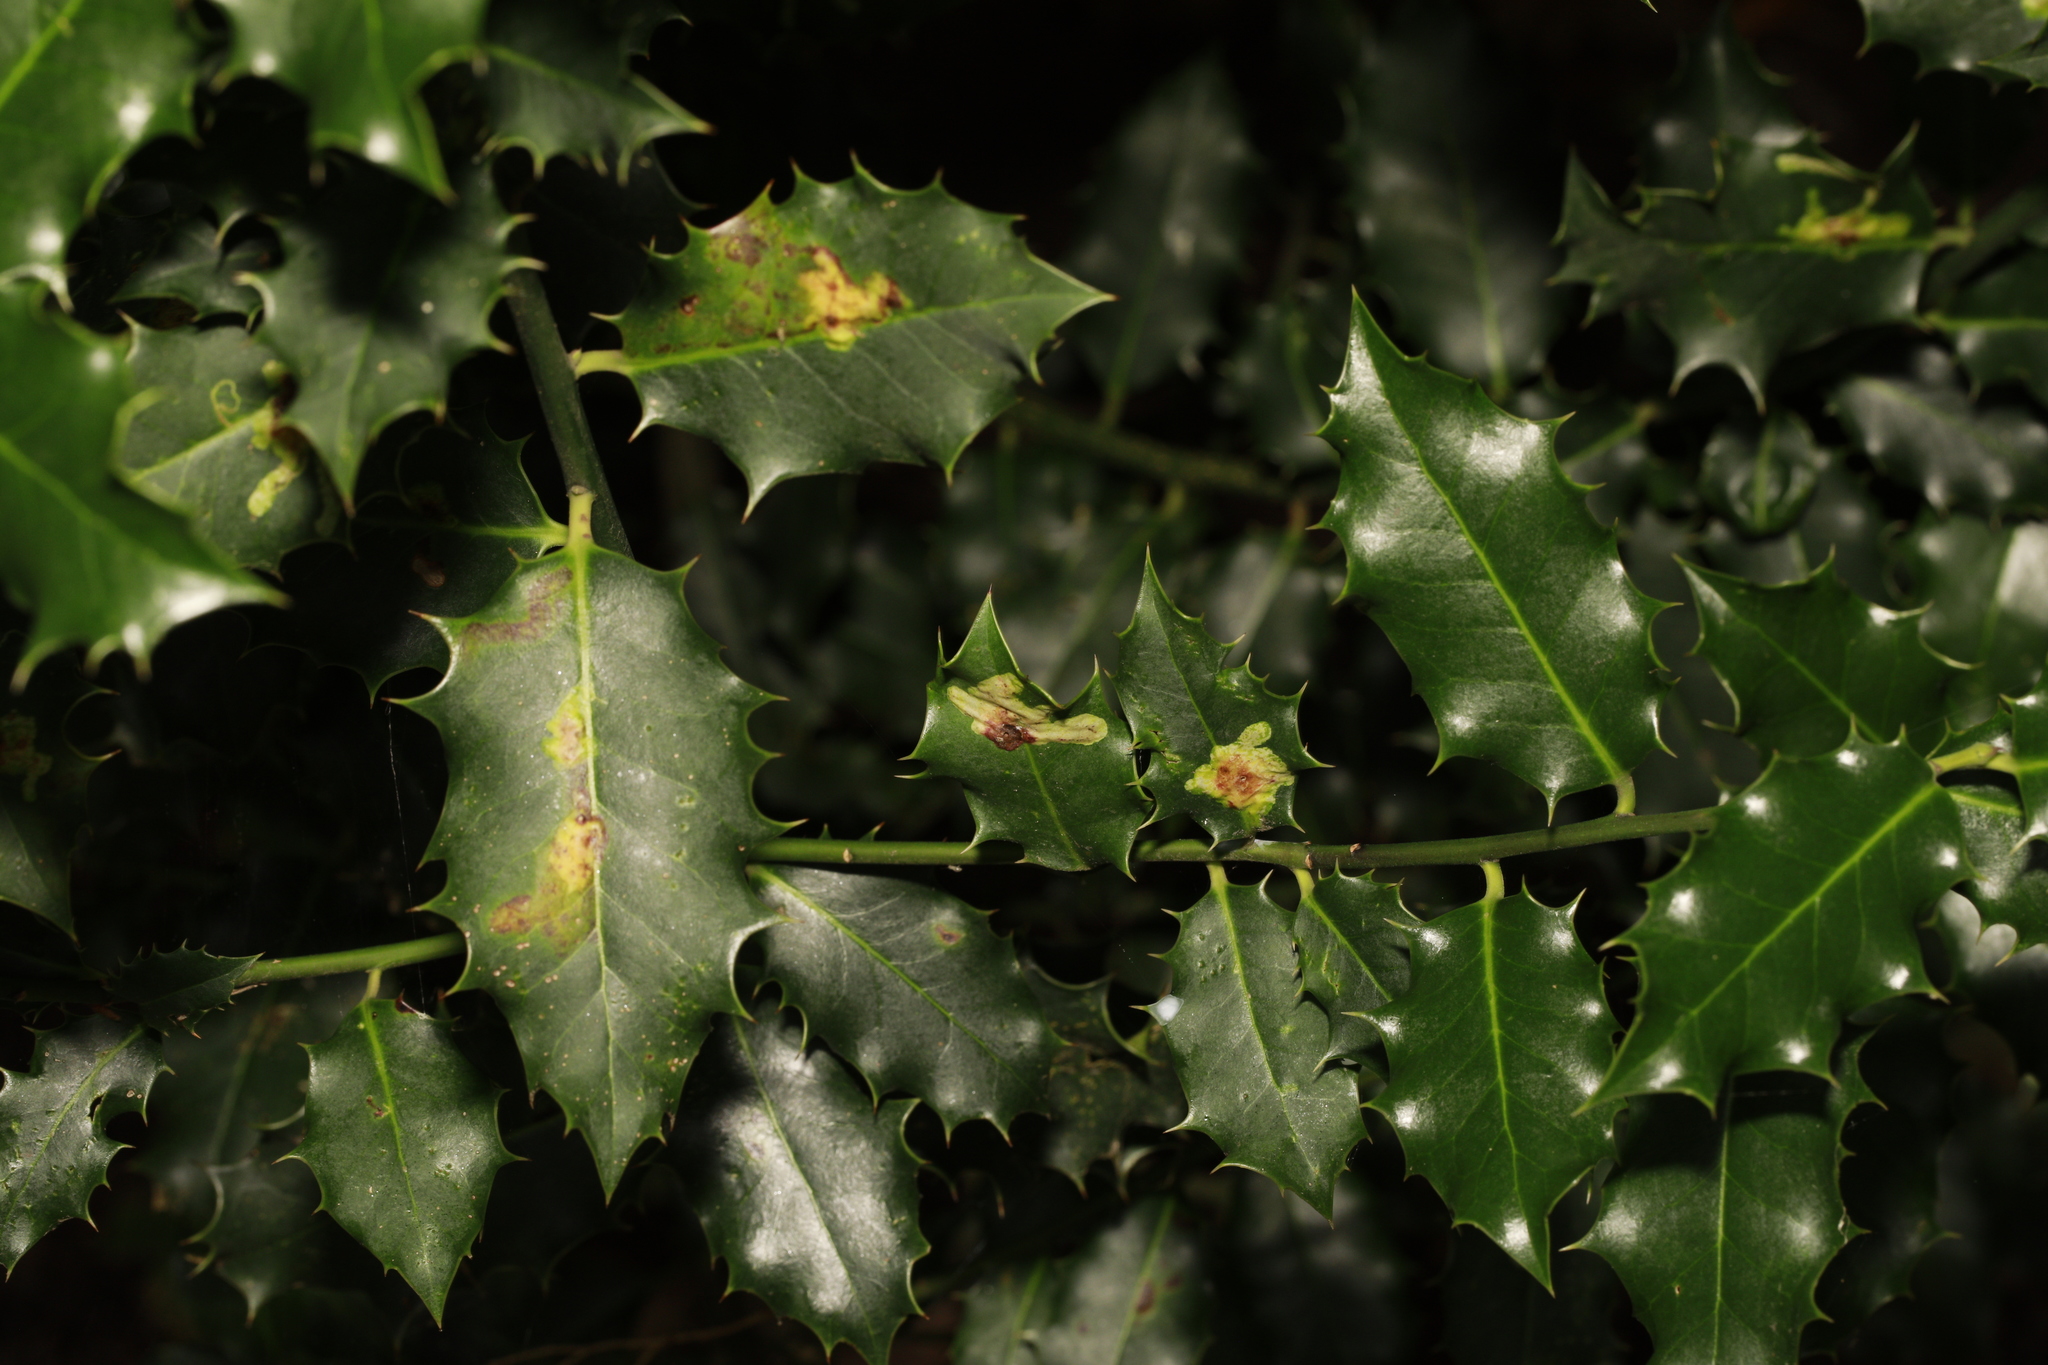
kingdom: Plantae
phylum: Tracheophyta
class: Magnoliopsida
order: Aquifoliales
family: Aquifoliaceae
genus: Ilex
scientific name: Ilex aquifolium
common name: English holly
